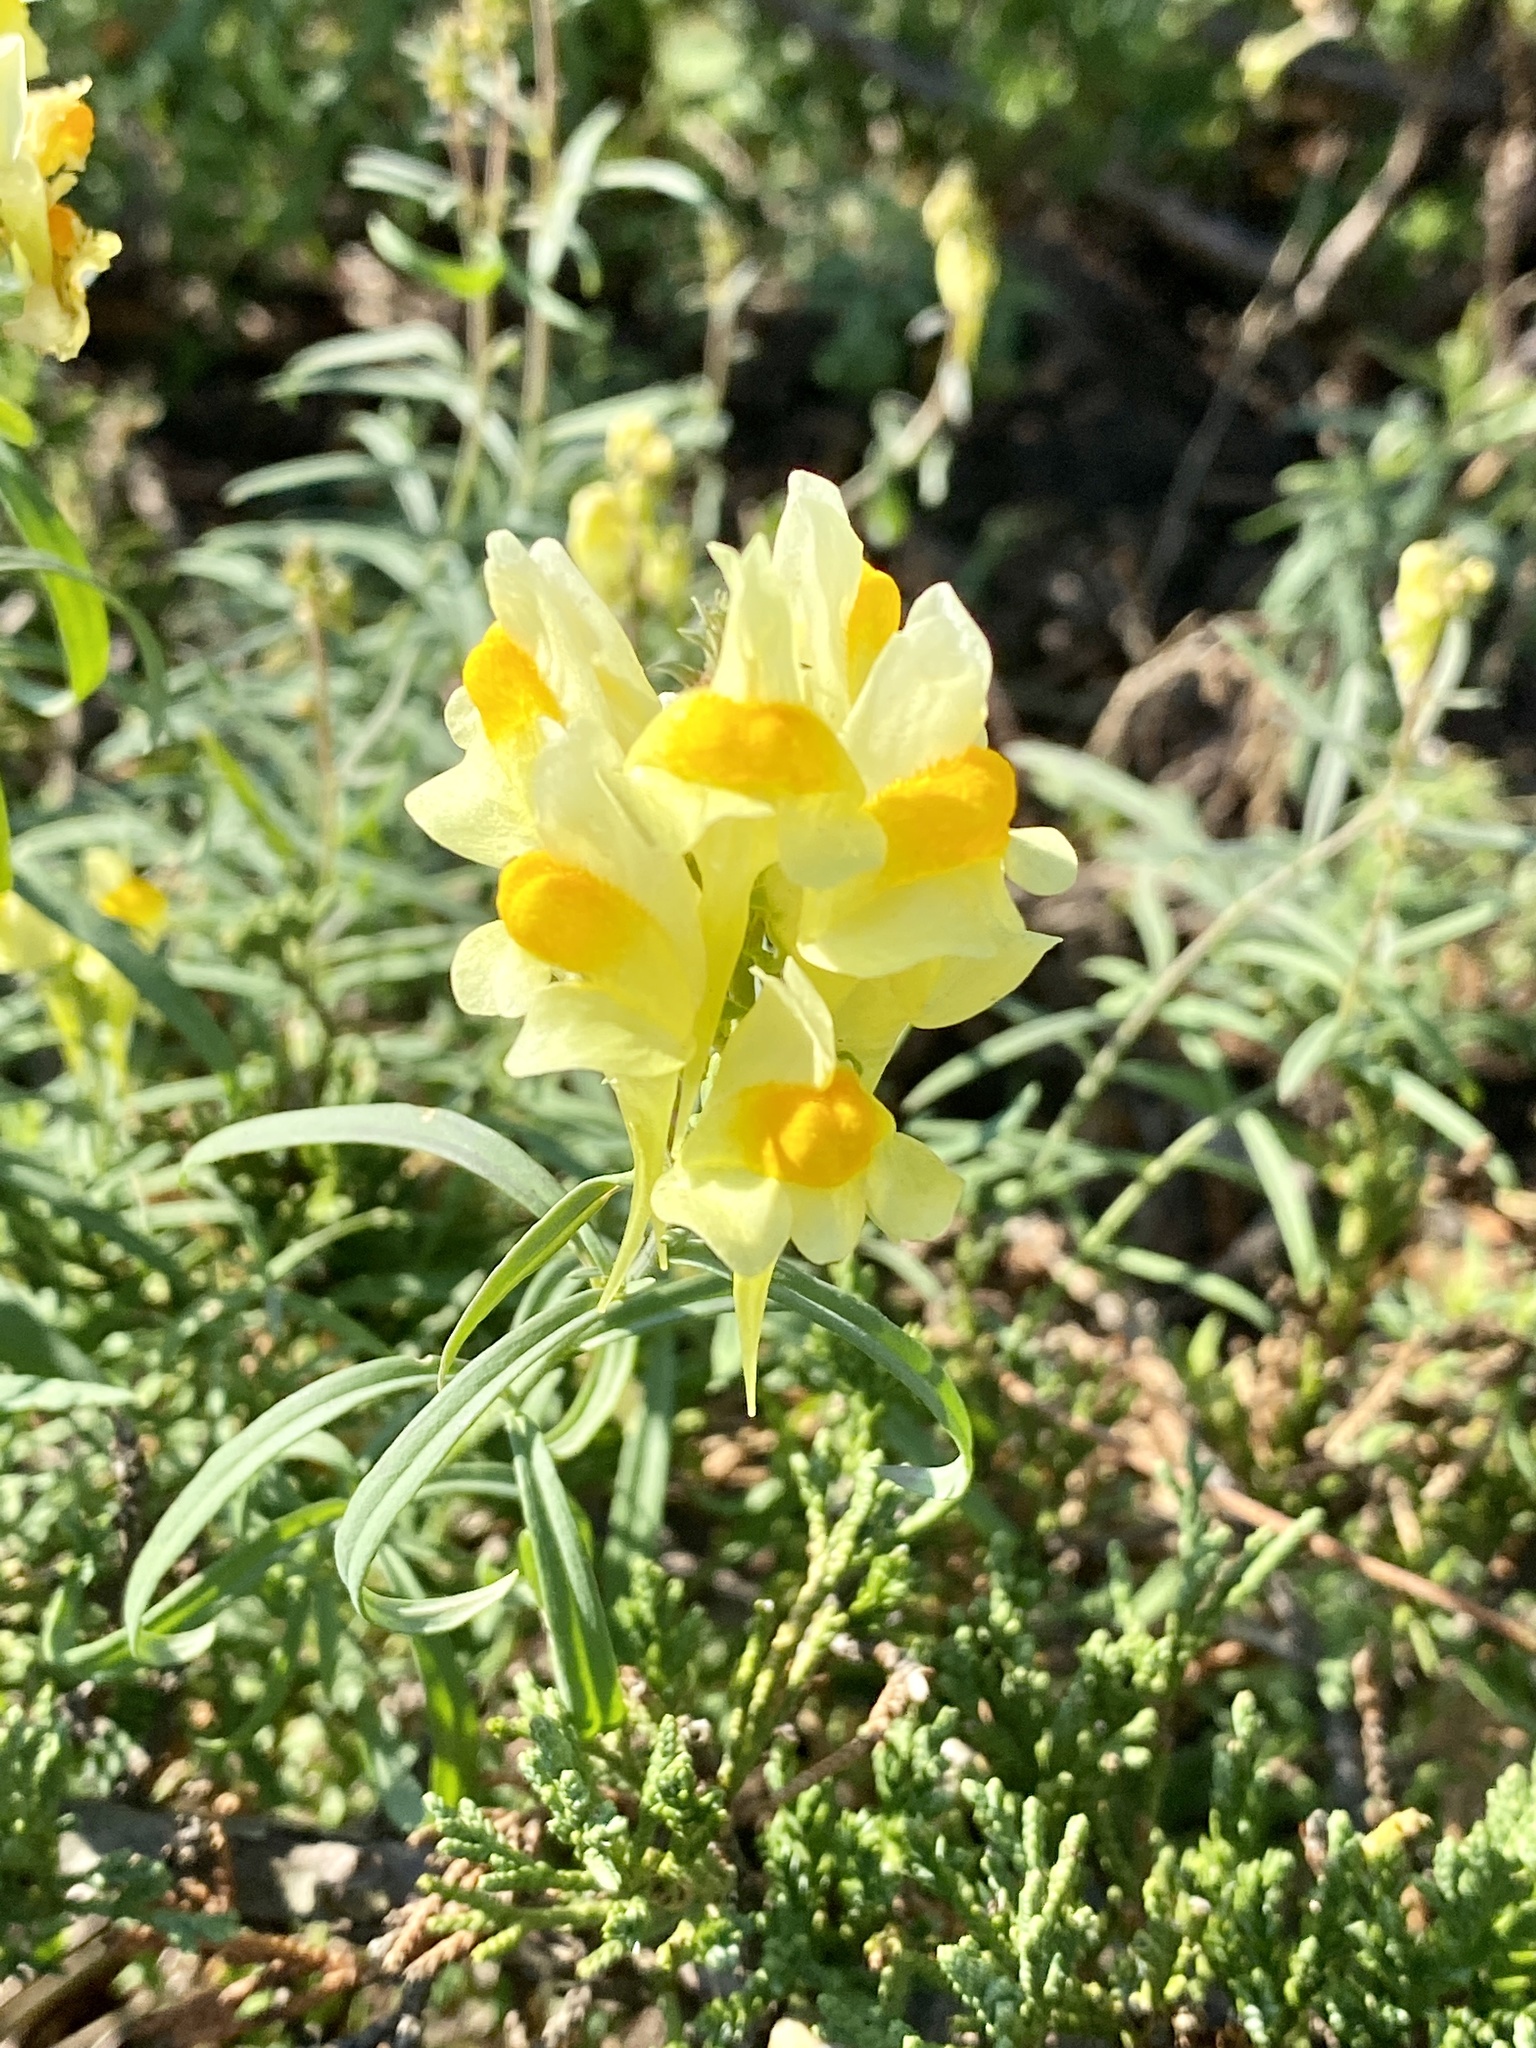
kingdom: Plantae
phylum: Tracheophyta
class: Magnoliopsida
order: Lamiales
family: Plantaginaceae
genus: Linaria
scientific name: Linaria vulgaris
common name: Butter and eggs
